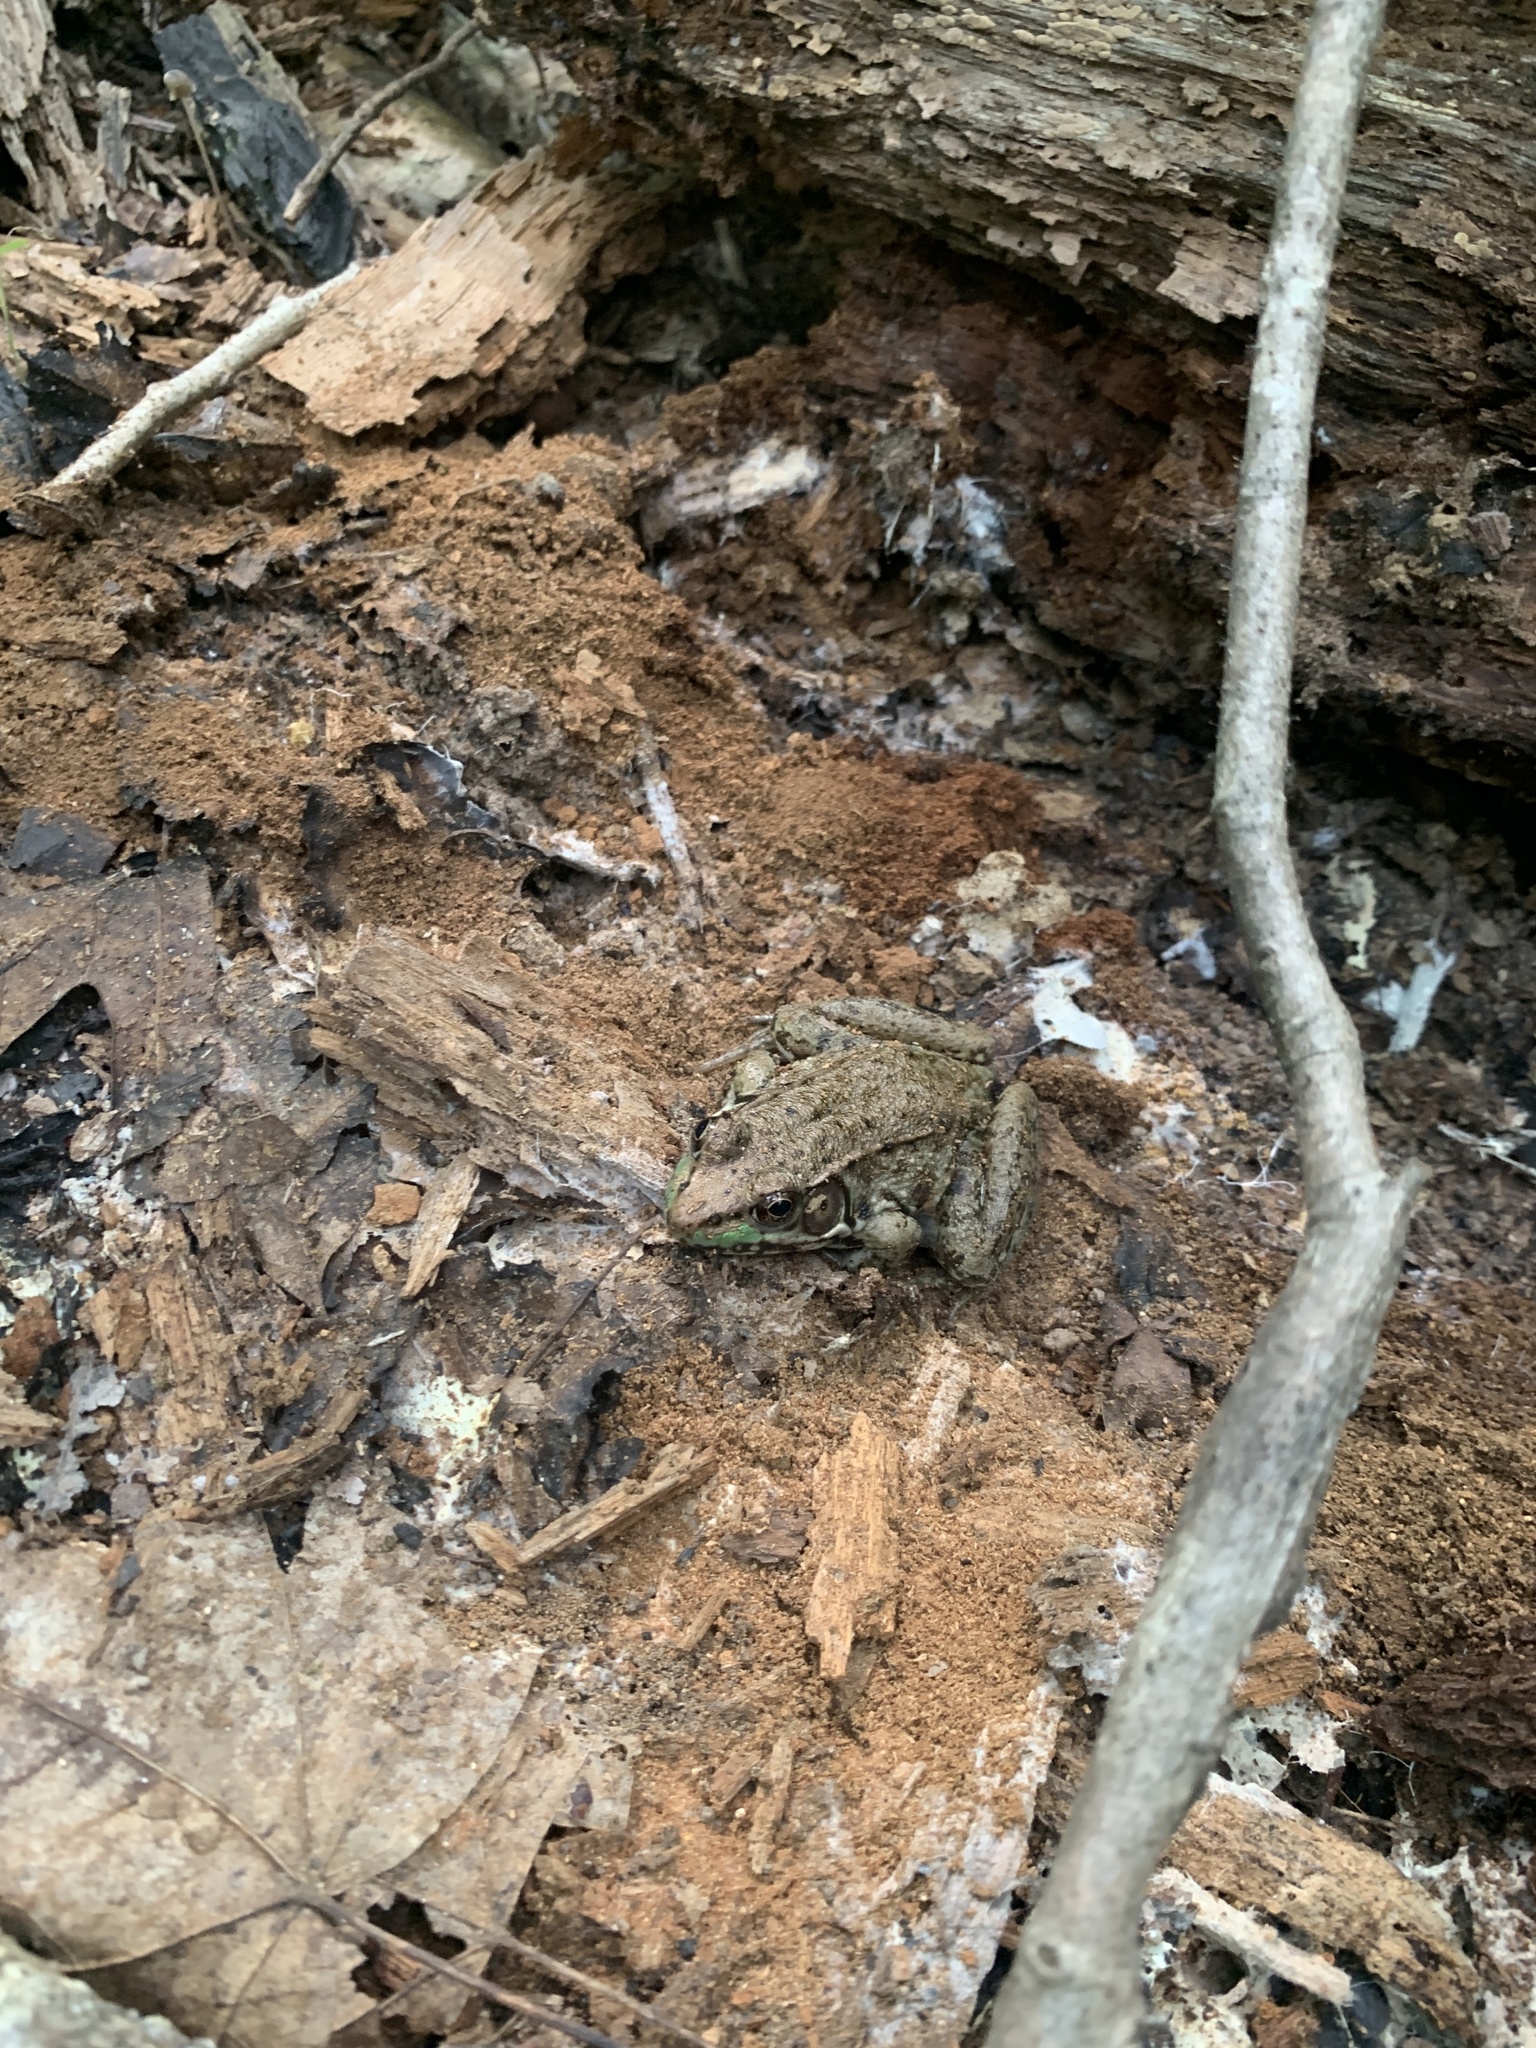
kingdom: Animalia
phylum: Chordata
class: Amphibia
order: Anura
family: Ranidae
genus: Lithobates
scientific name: Lithobates clamitans
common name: Green frog
